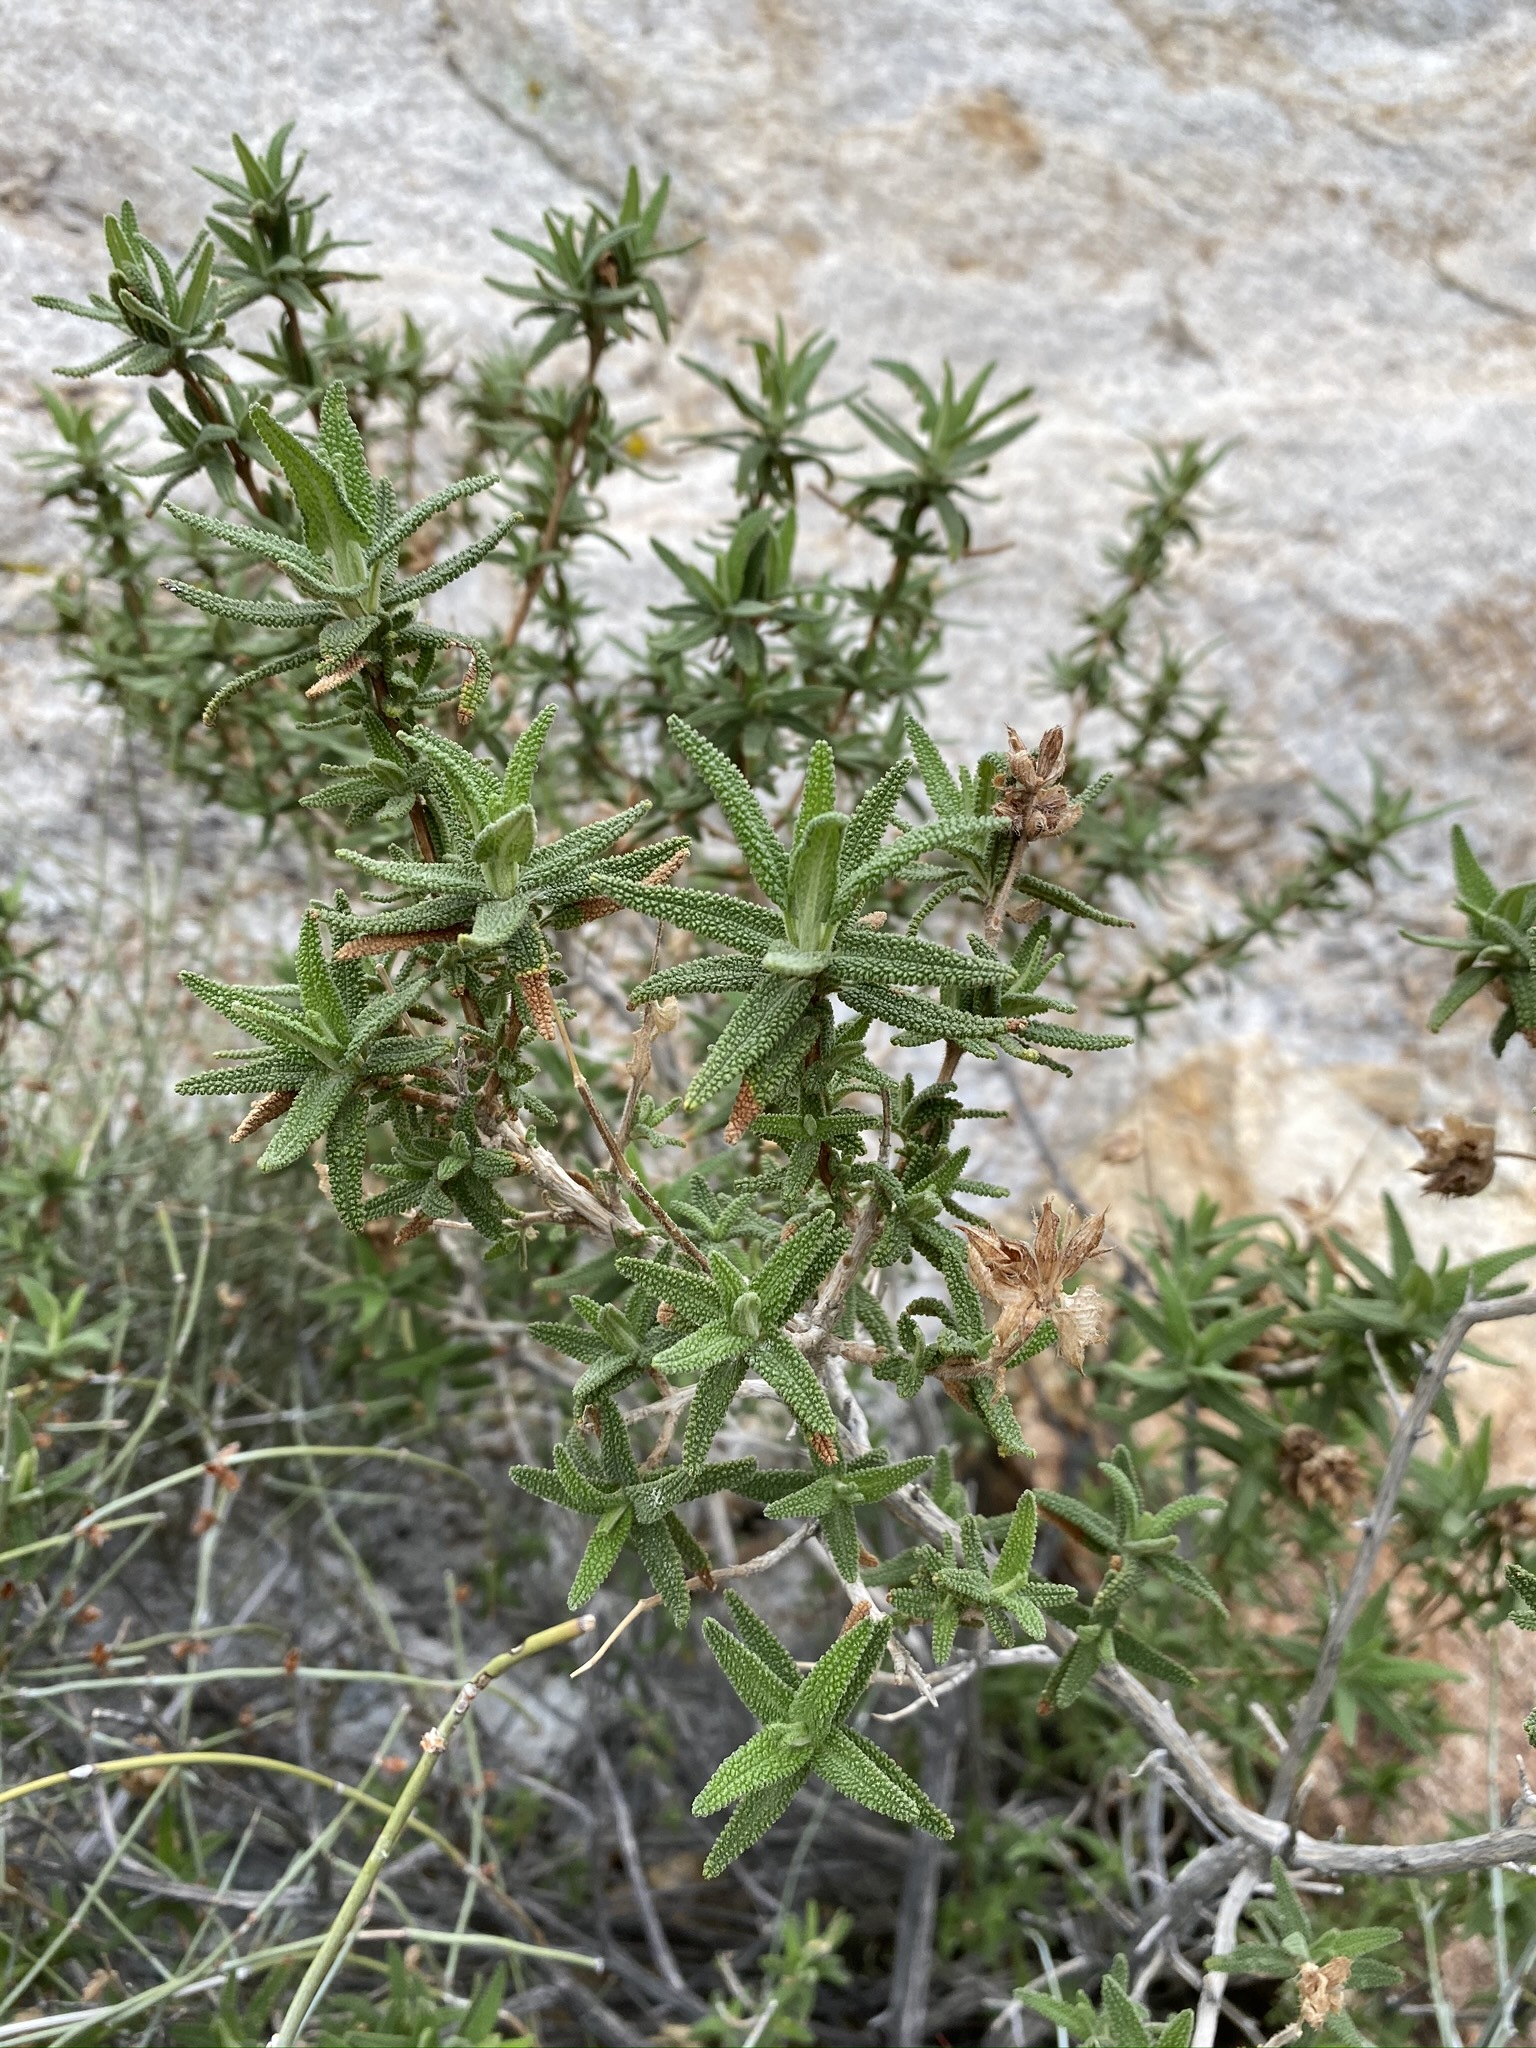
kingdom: Plantae
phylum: Tracheophyta
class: Magnoliopsida
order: Lamiales
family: Lamiaceae
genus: Salvia
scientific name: Salvia eremostachya
